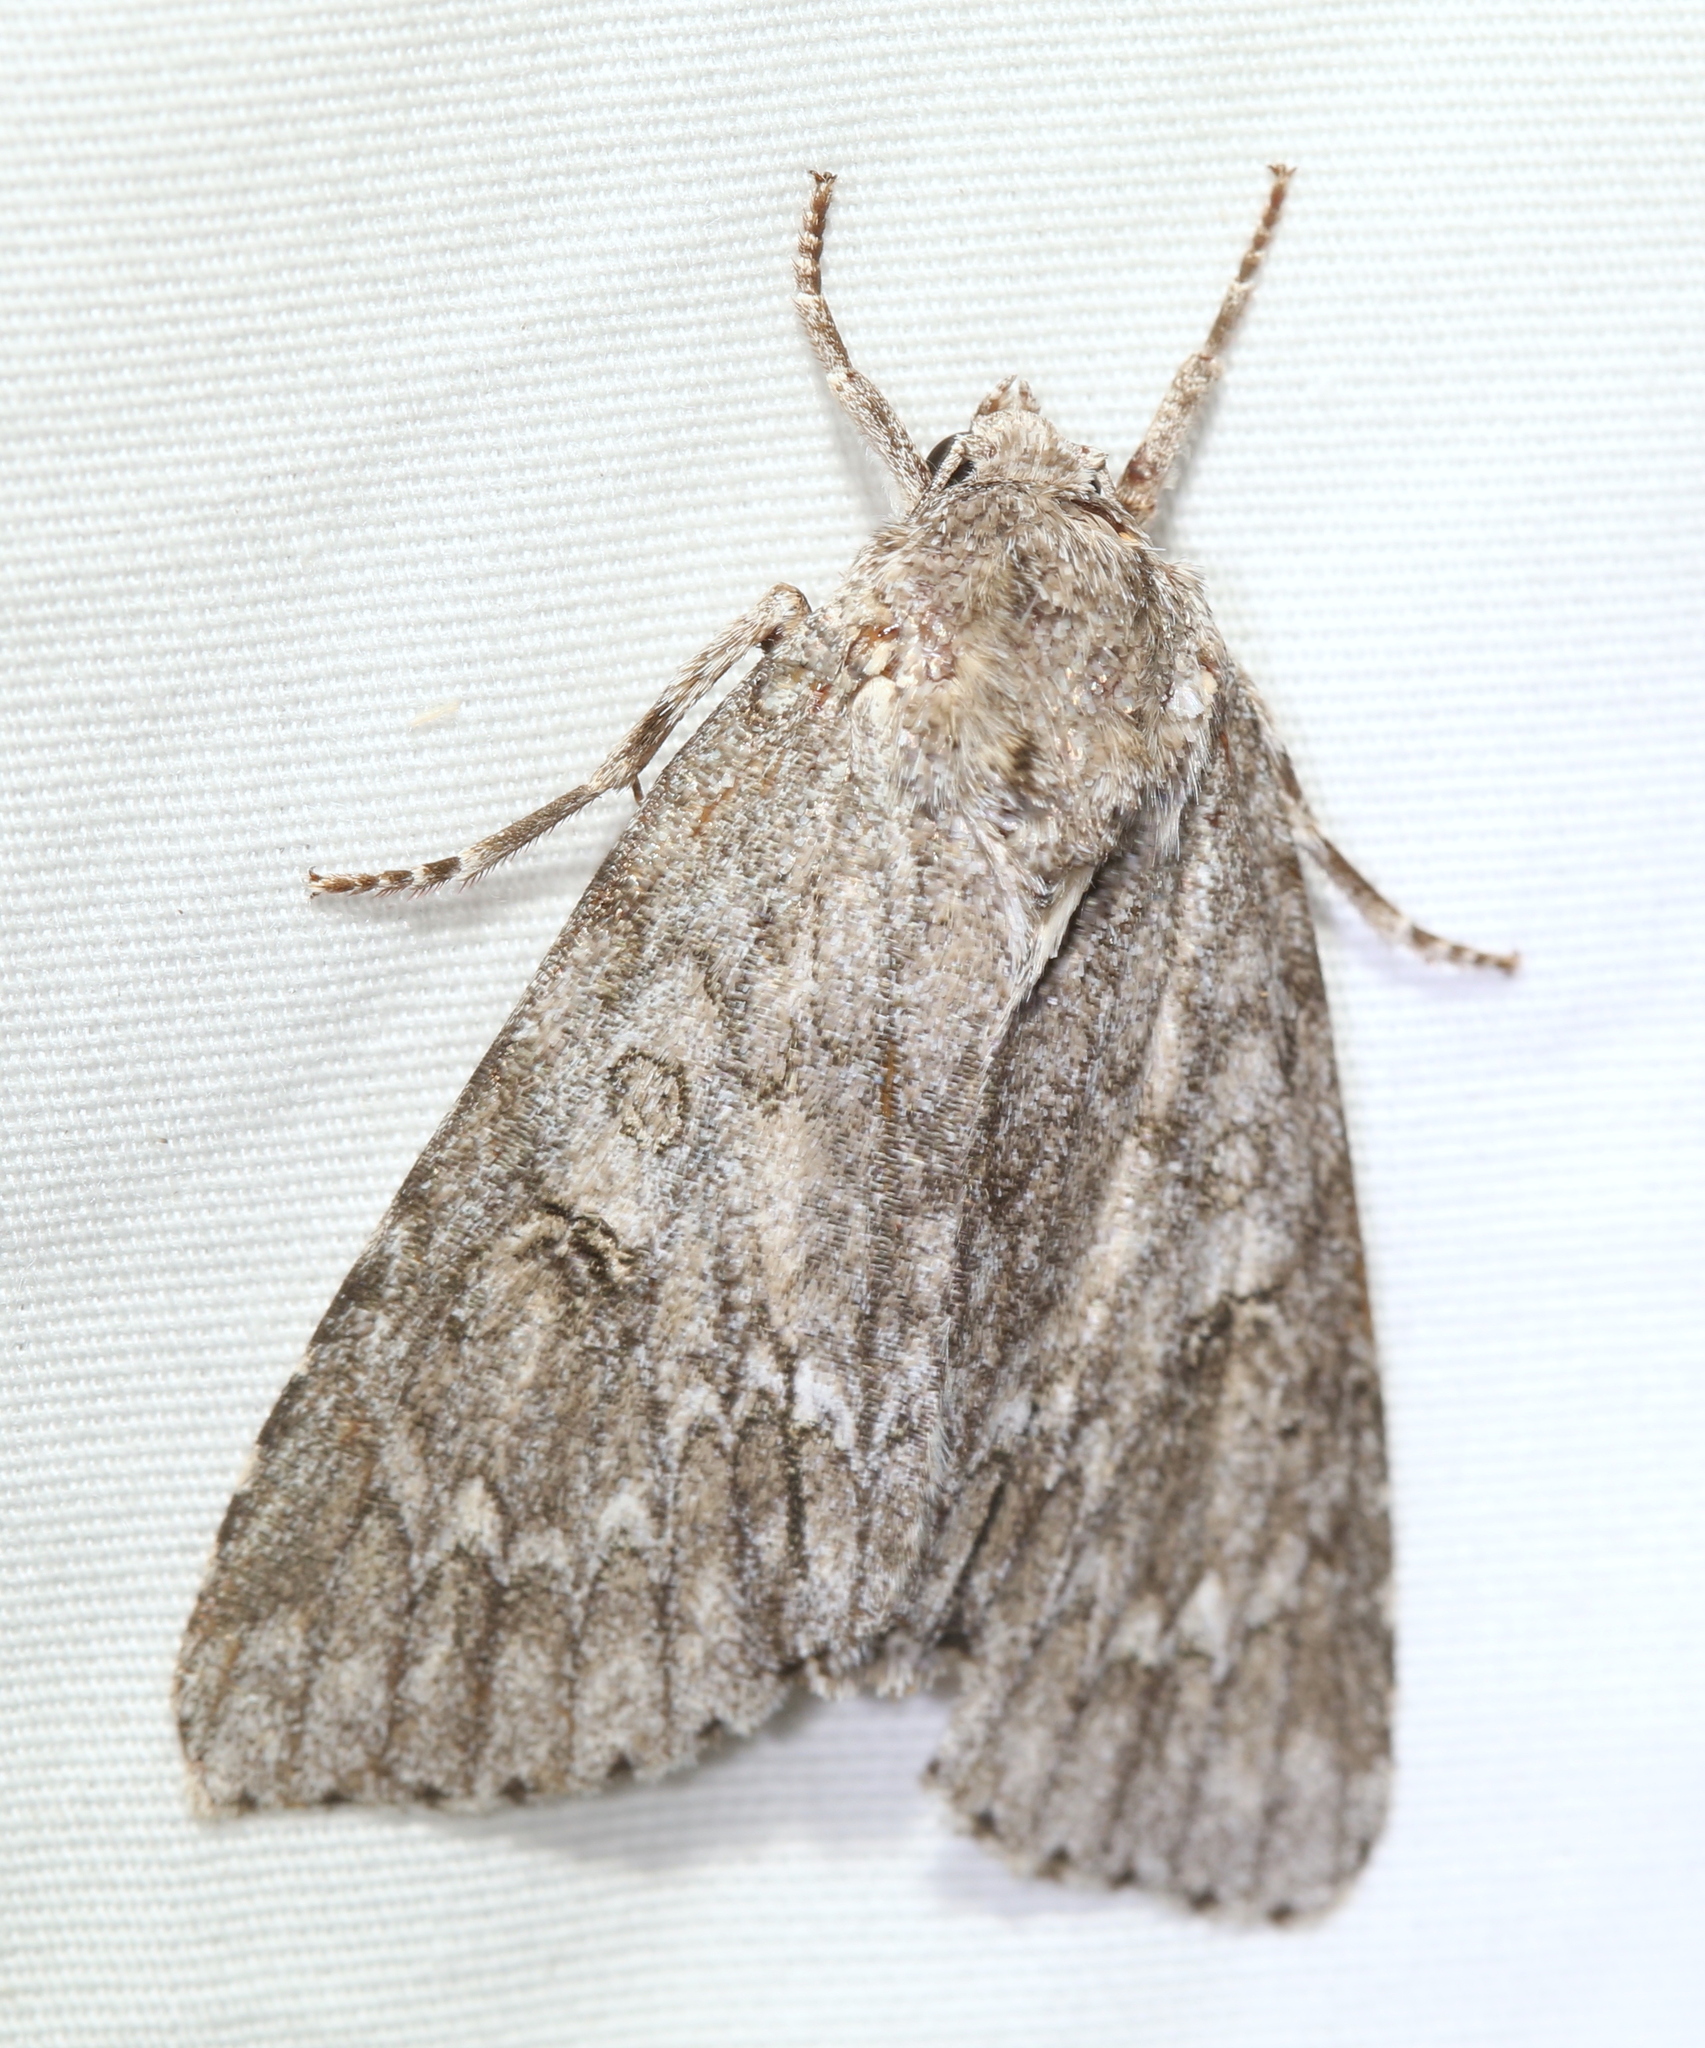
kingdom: Animalia
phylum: Arthropoda
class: Insecta
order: Lepidoptera
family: Noctuidae
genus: Acronicta
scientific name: Acronicta americana
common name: American dagger
